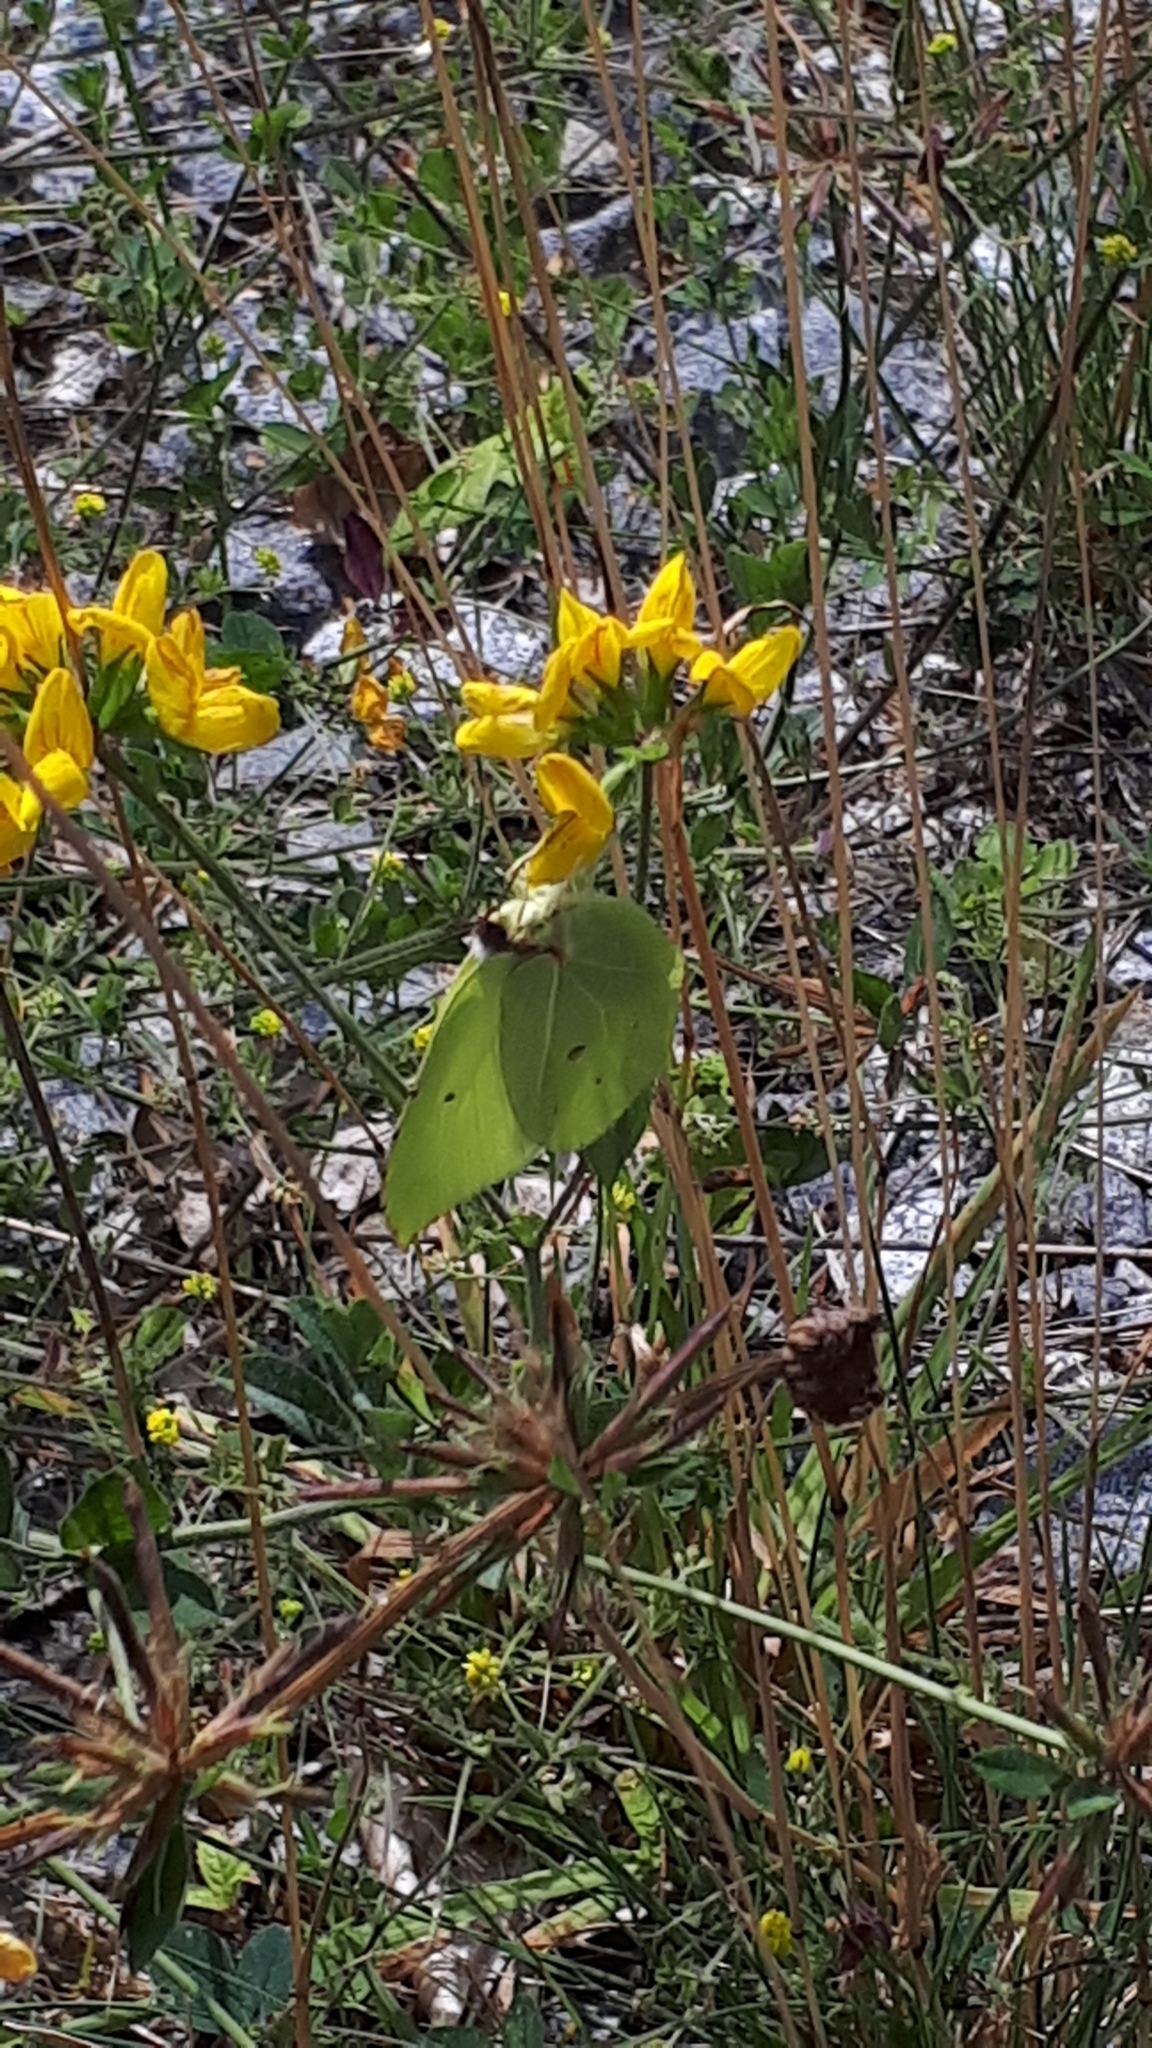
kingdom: Animalia
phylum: Arthropoda
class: Insecta
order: Lepidoptera
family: Pieridae
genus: Gonepteryx
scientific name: Gonepteryx rhamni
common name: Brimstone
